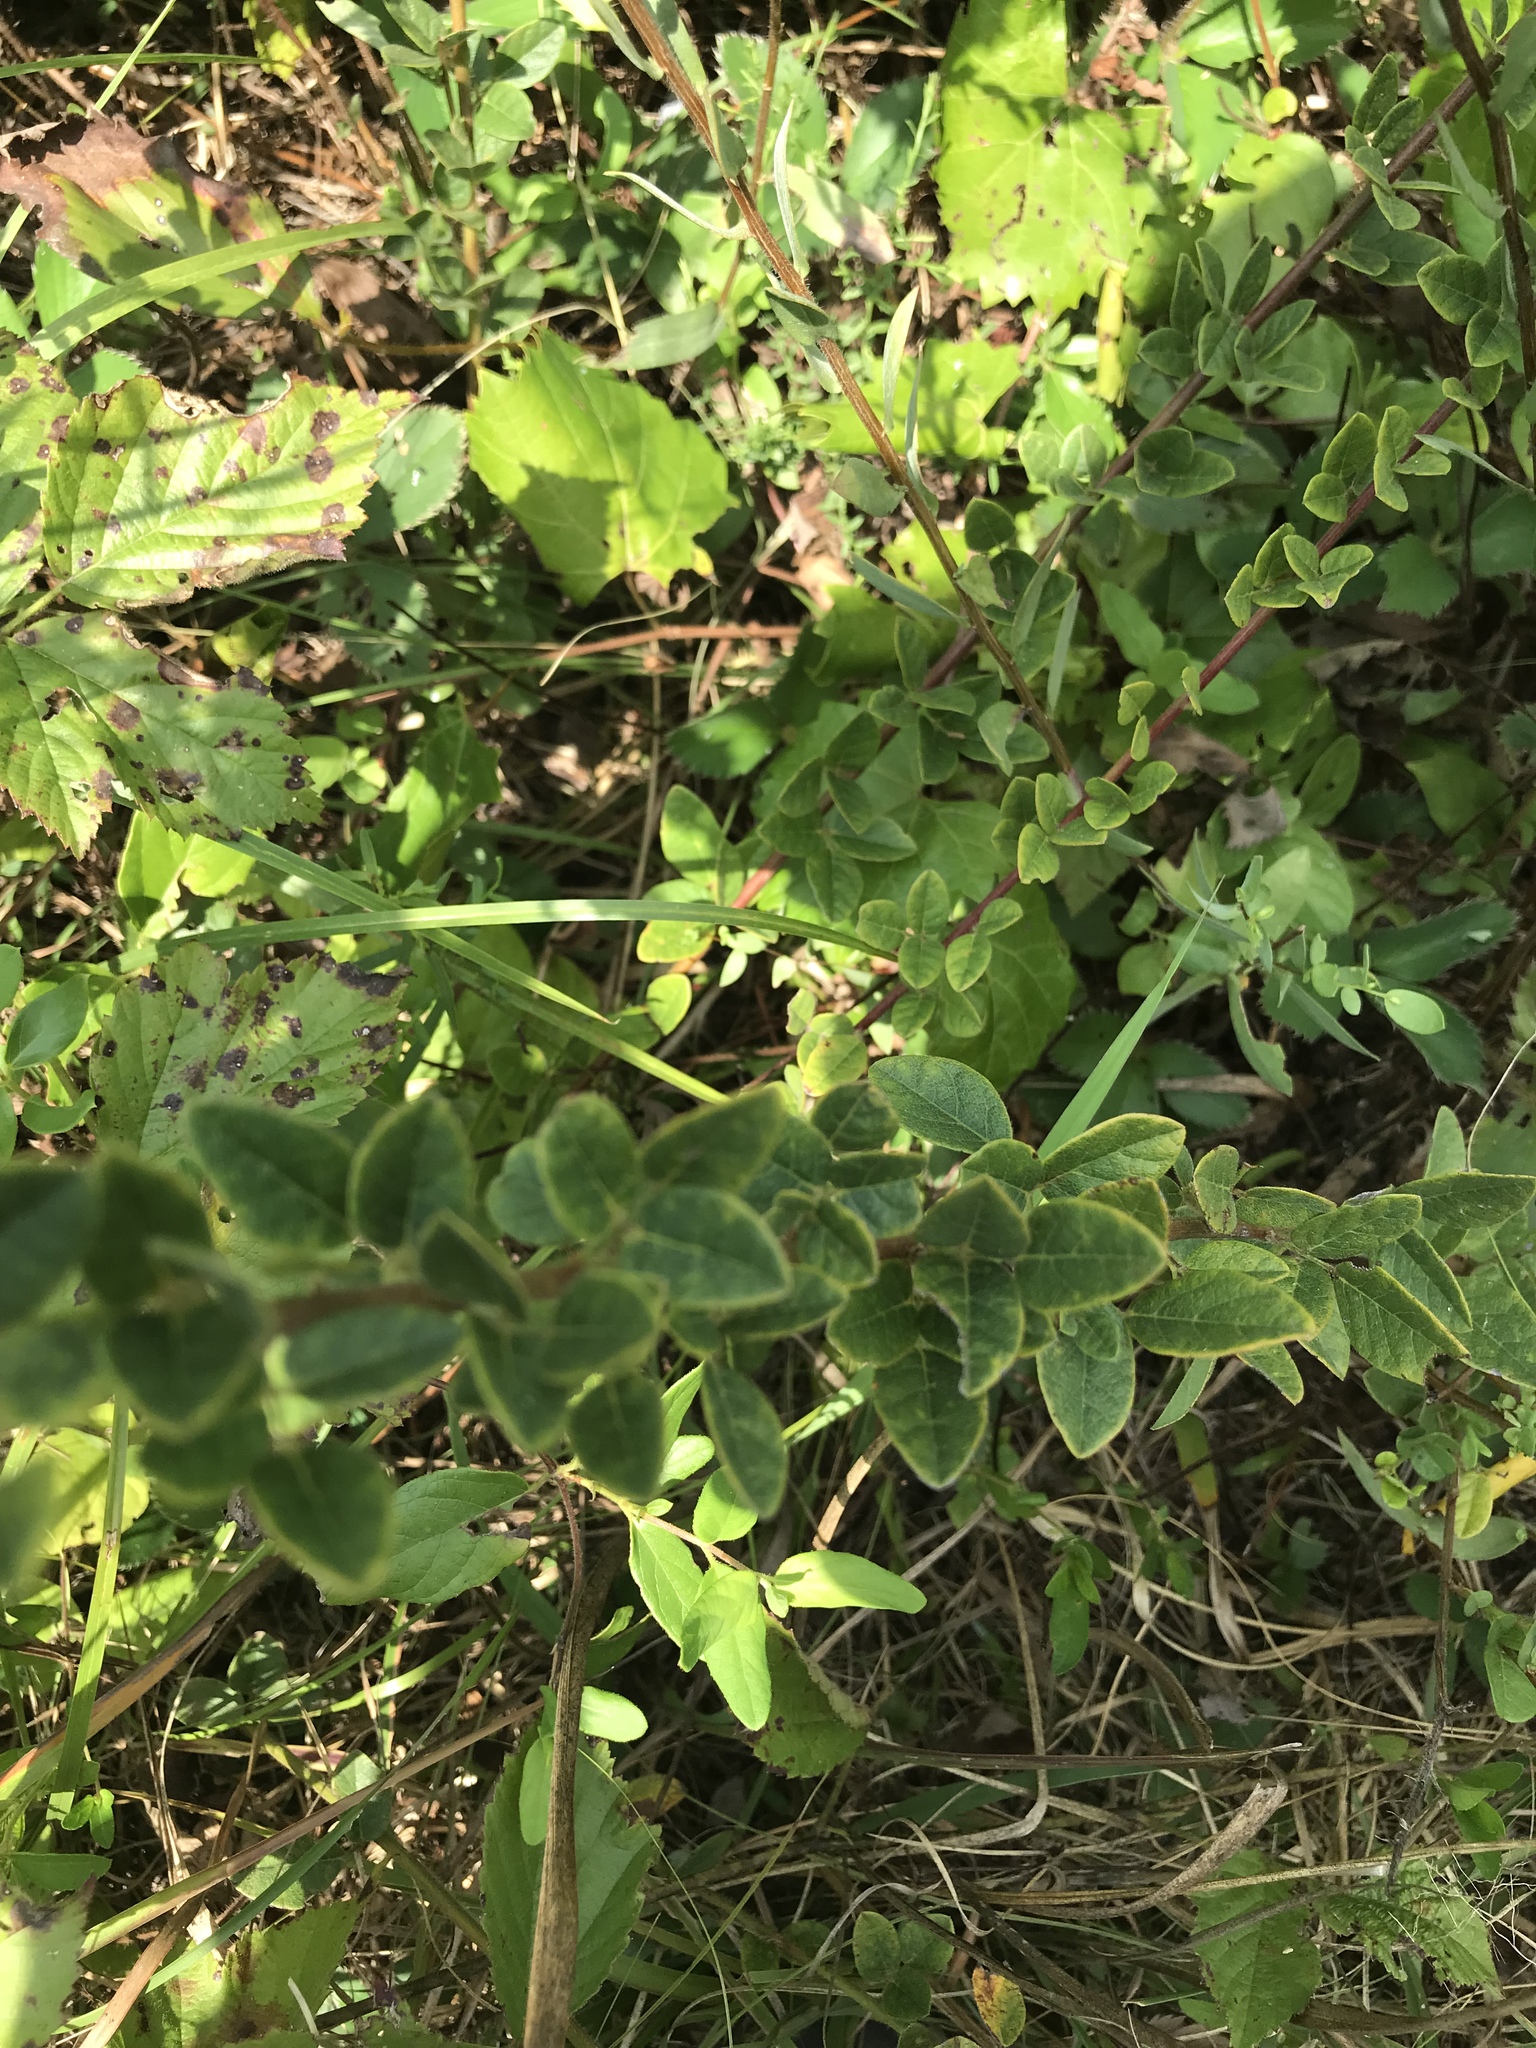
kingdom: Plantae
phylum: Tracheophyta
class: Magnoliopsida
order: Fabales
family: Fabaceae
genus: Desmodium
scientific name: Desmodium ciliare
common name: Hairy small-leaf ticktrefoil
